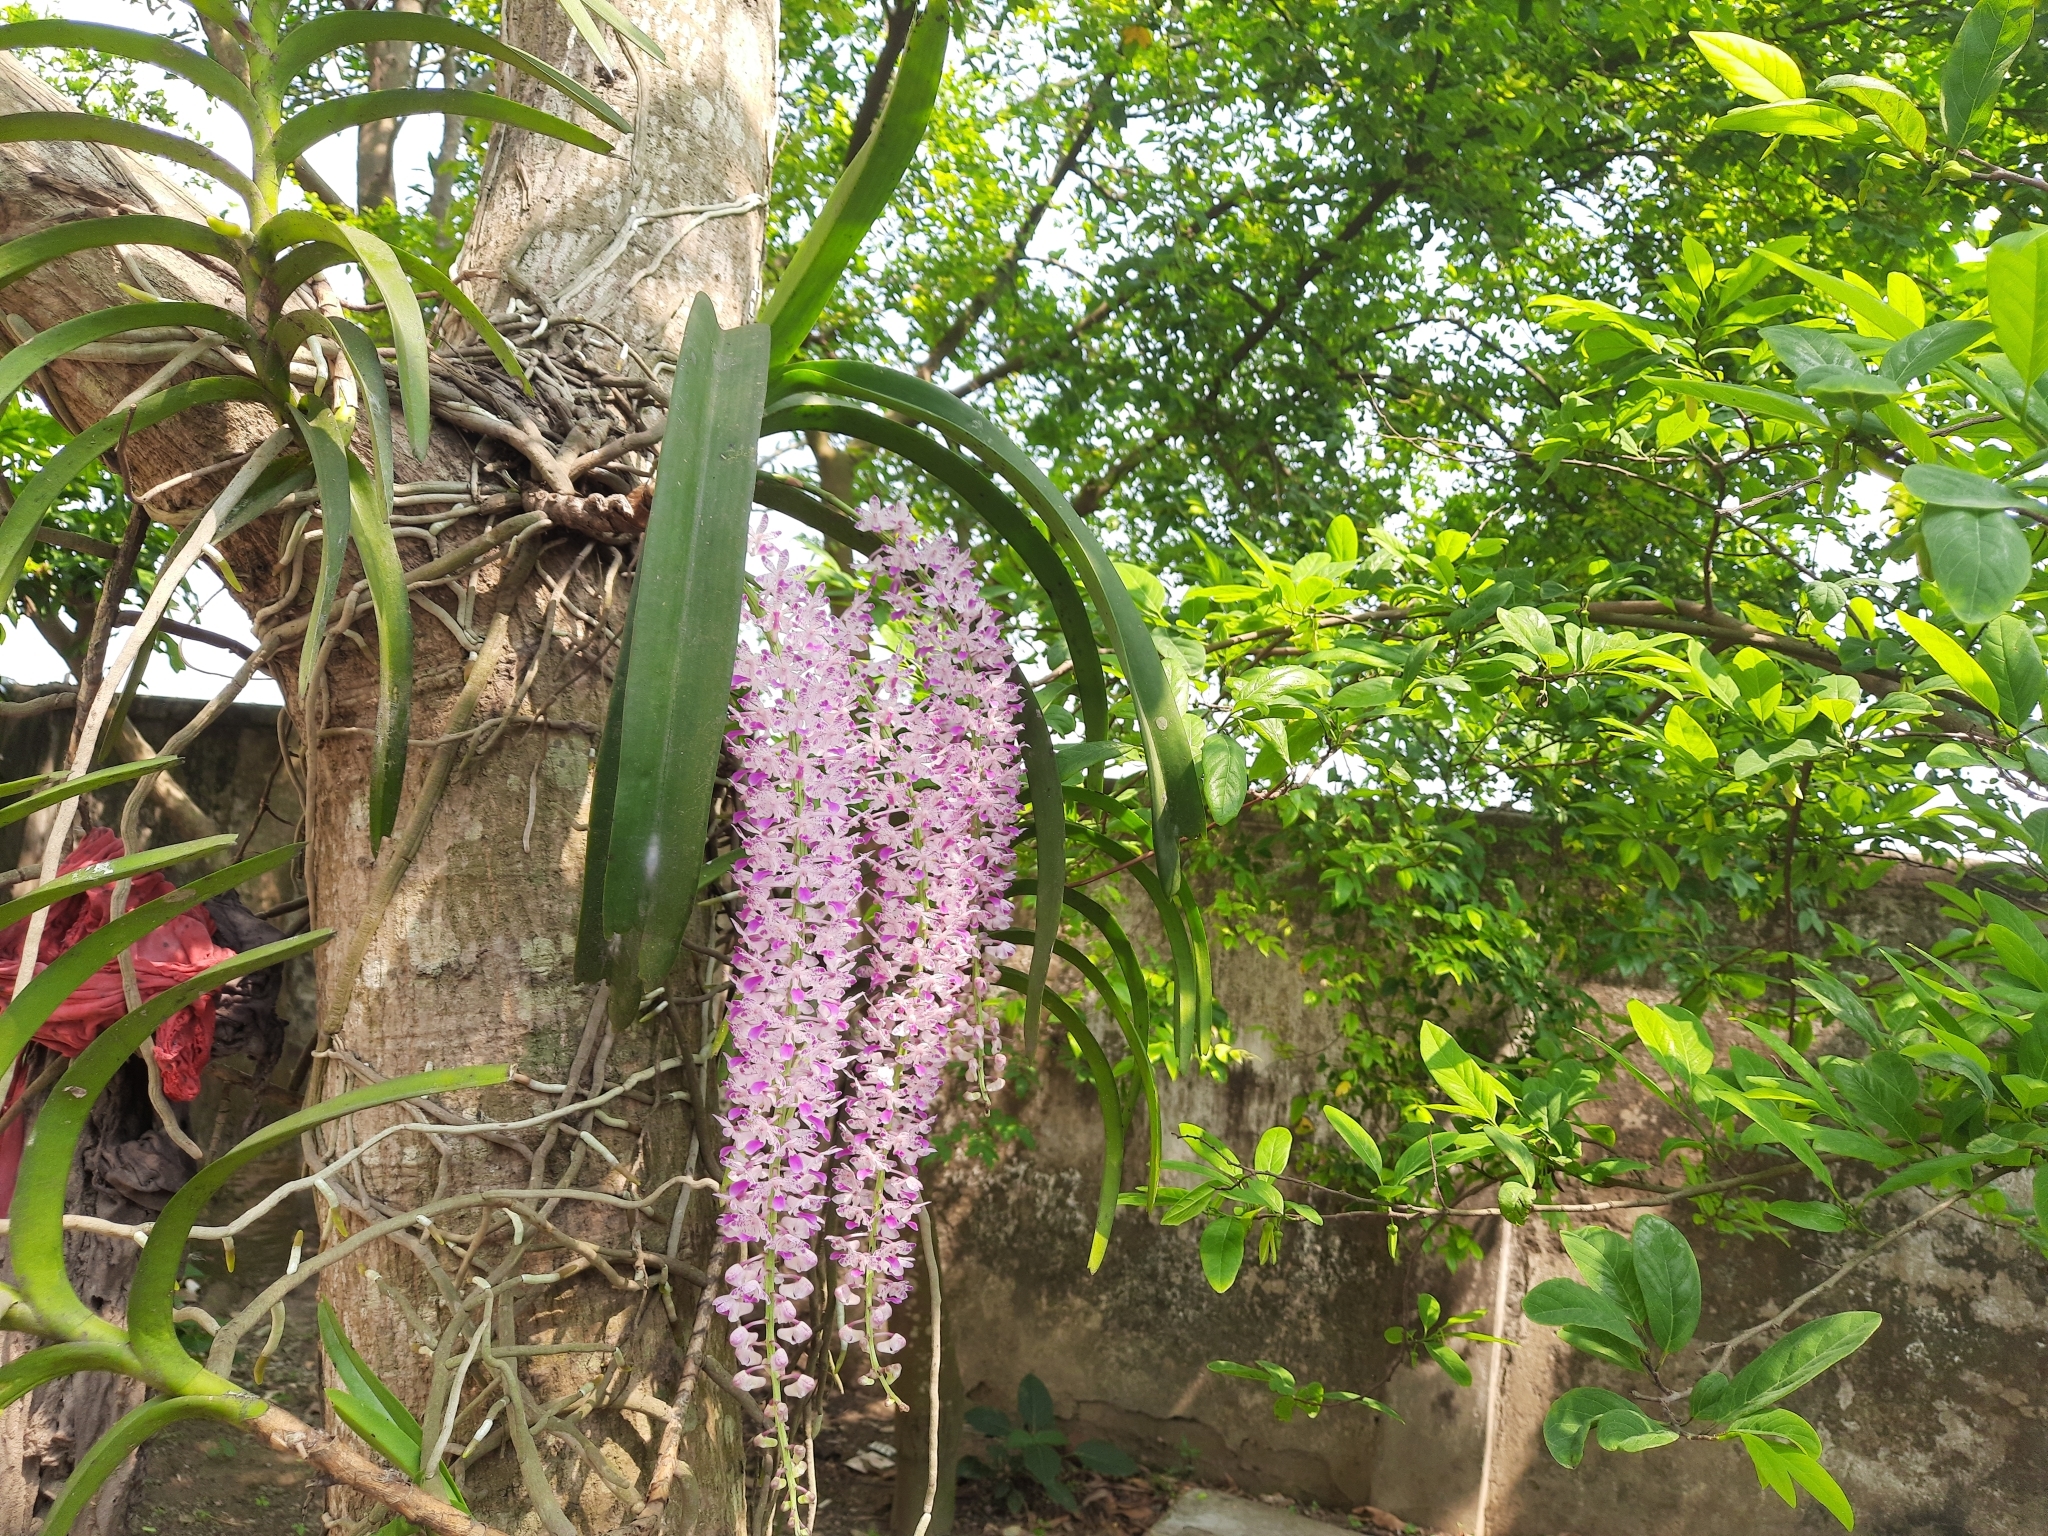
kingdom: Plantae
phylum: Tracheophyta
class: Liliopsida
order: Asparagales
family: Orchidaceae
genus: Rhynchostylis
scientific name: Rhynchostylis retusa
